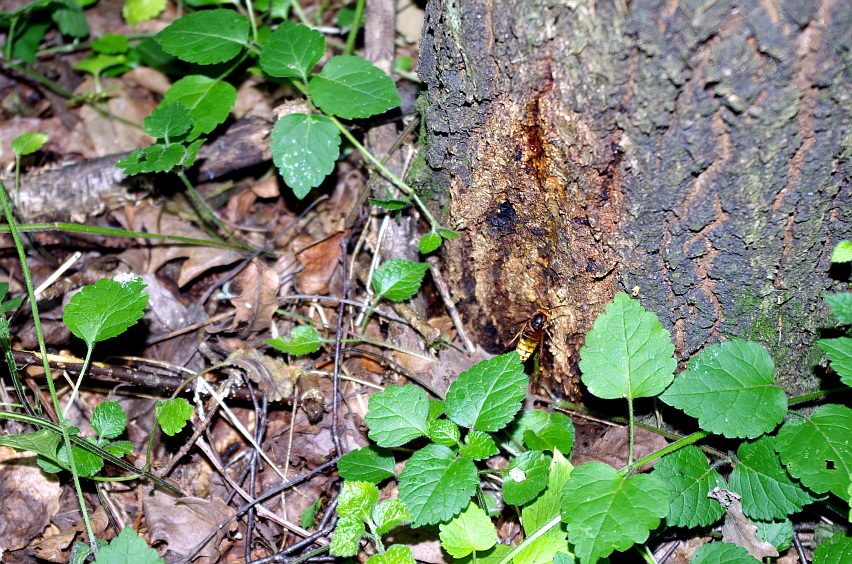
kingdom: Plantae
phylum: Tracheophyta
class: Magnoliopsida
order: Lamiales
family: Lamiaceae
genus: Lamium
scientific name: Lamium galeobdolon
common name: Yellow archangel
